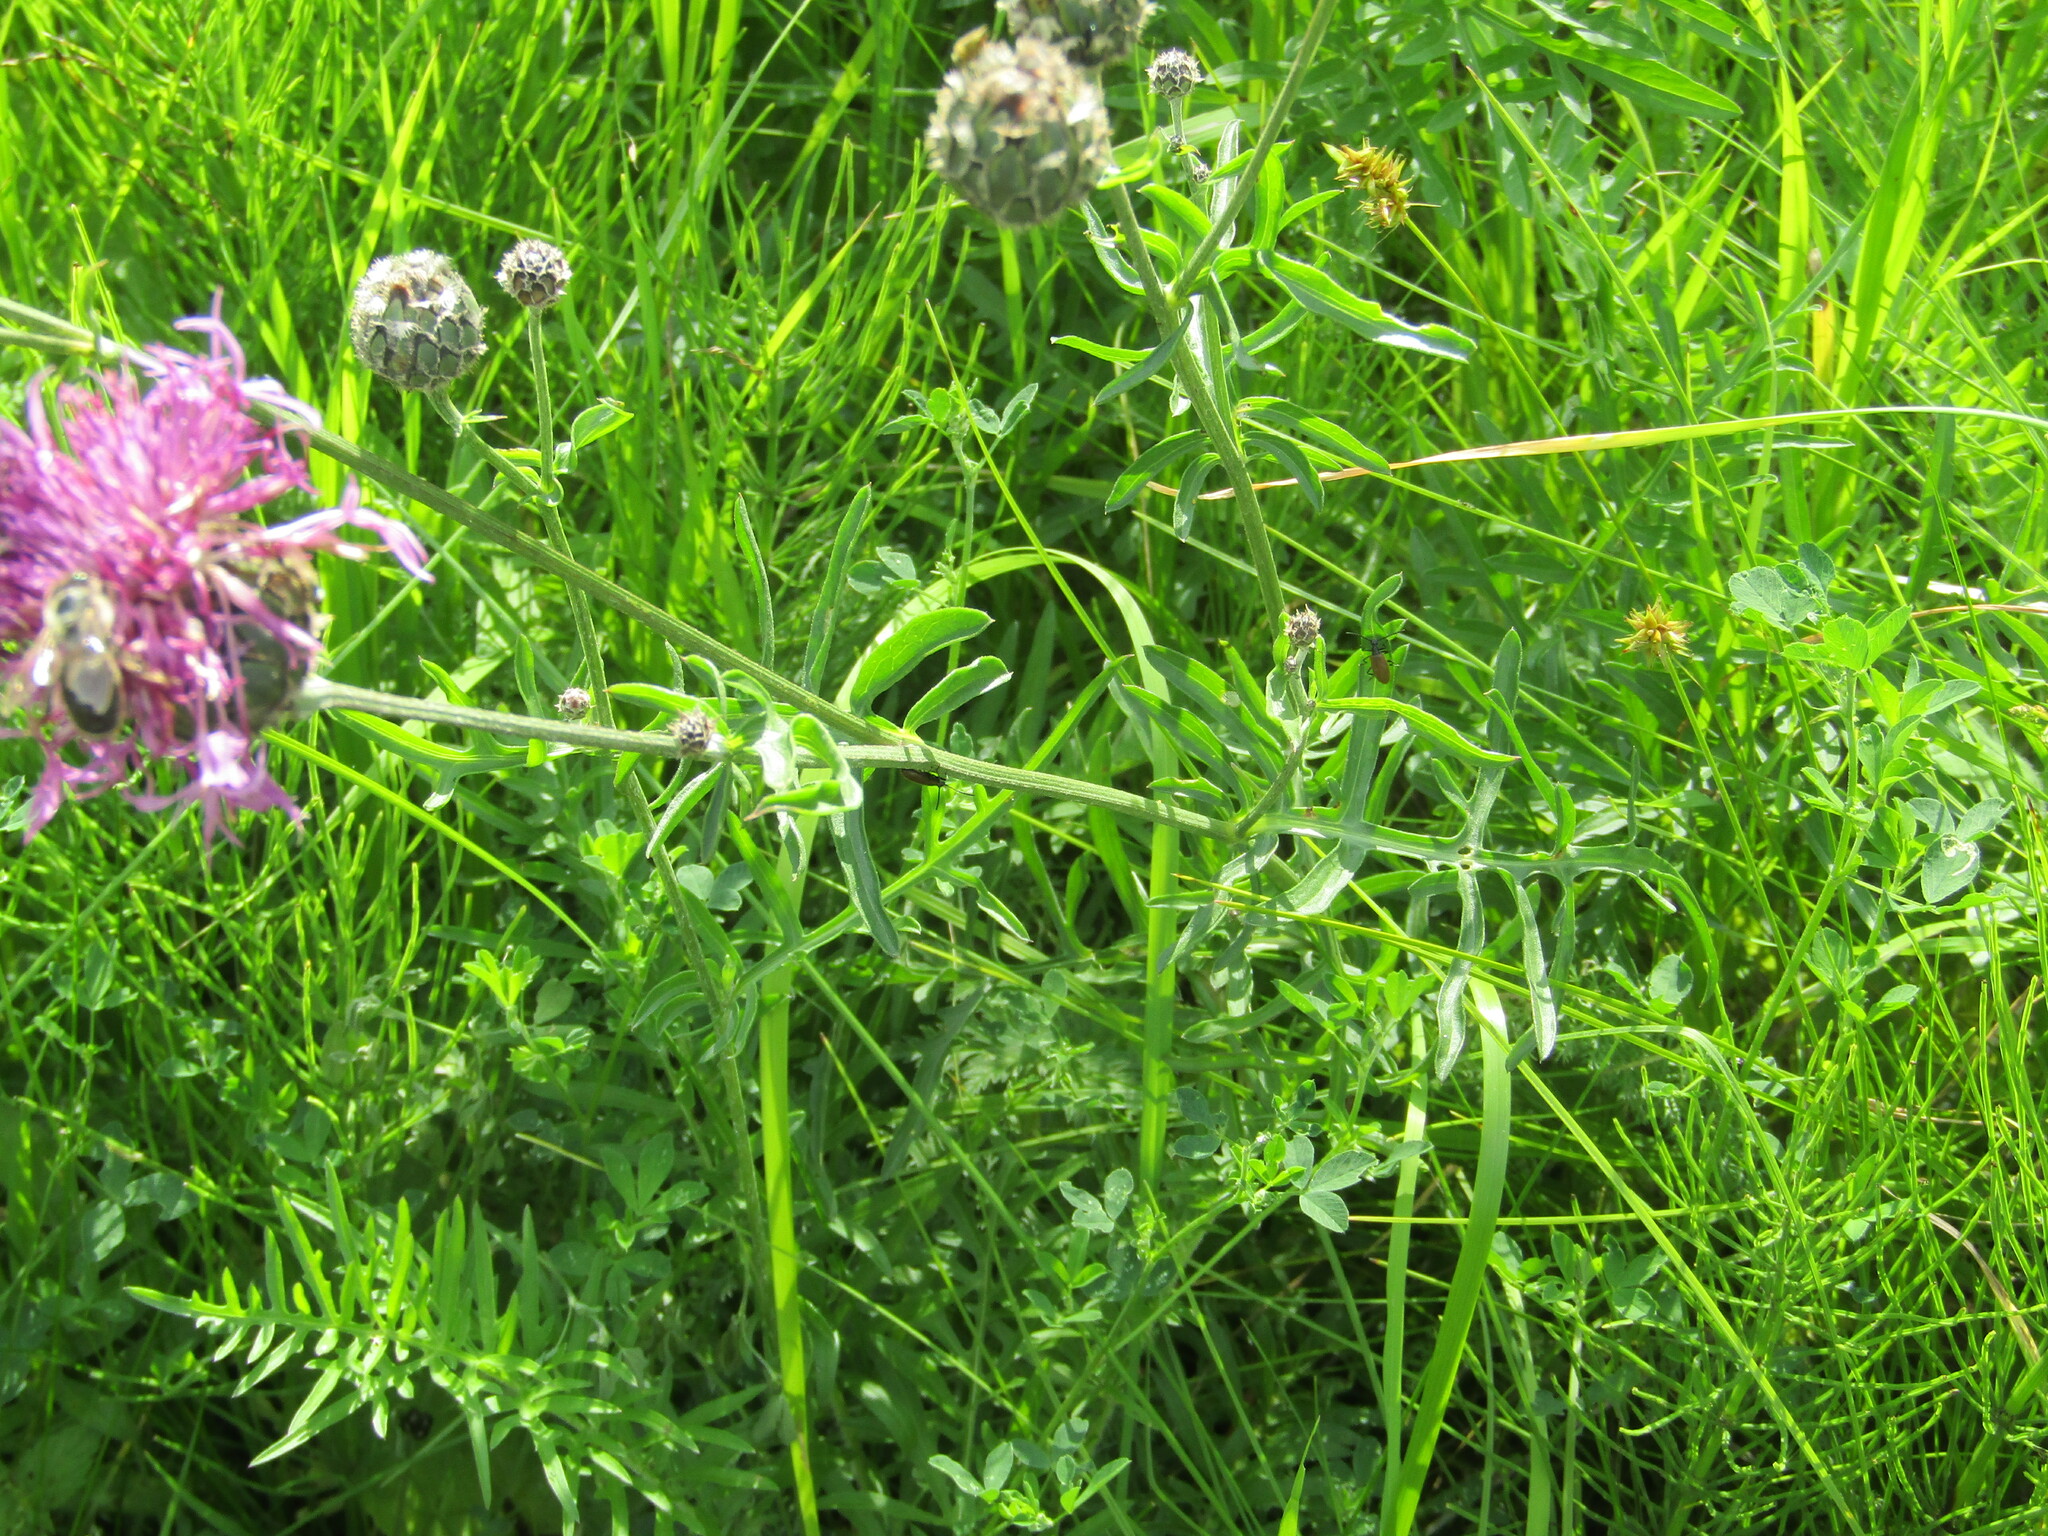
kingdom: Plantae
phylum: Tracheophyta
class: Magnoliopsida
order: Asterales
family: Asteraceae
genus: Centaurea
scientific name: Centaurea scabiosa
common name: Greater knapweed
